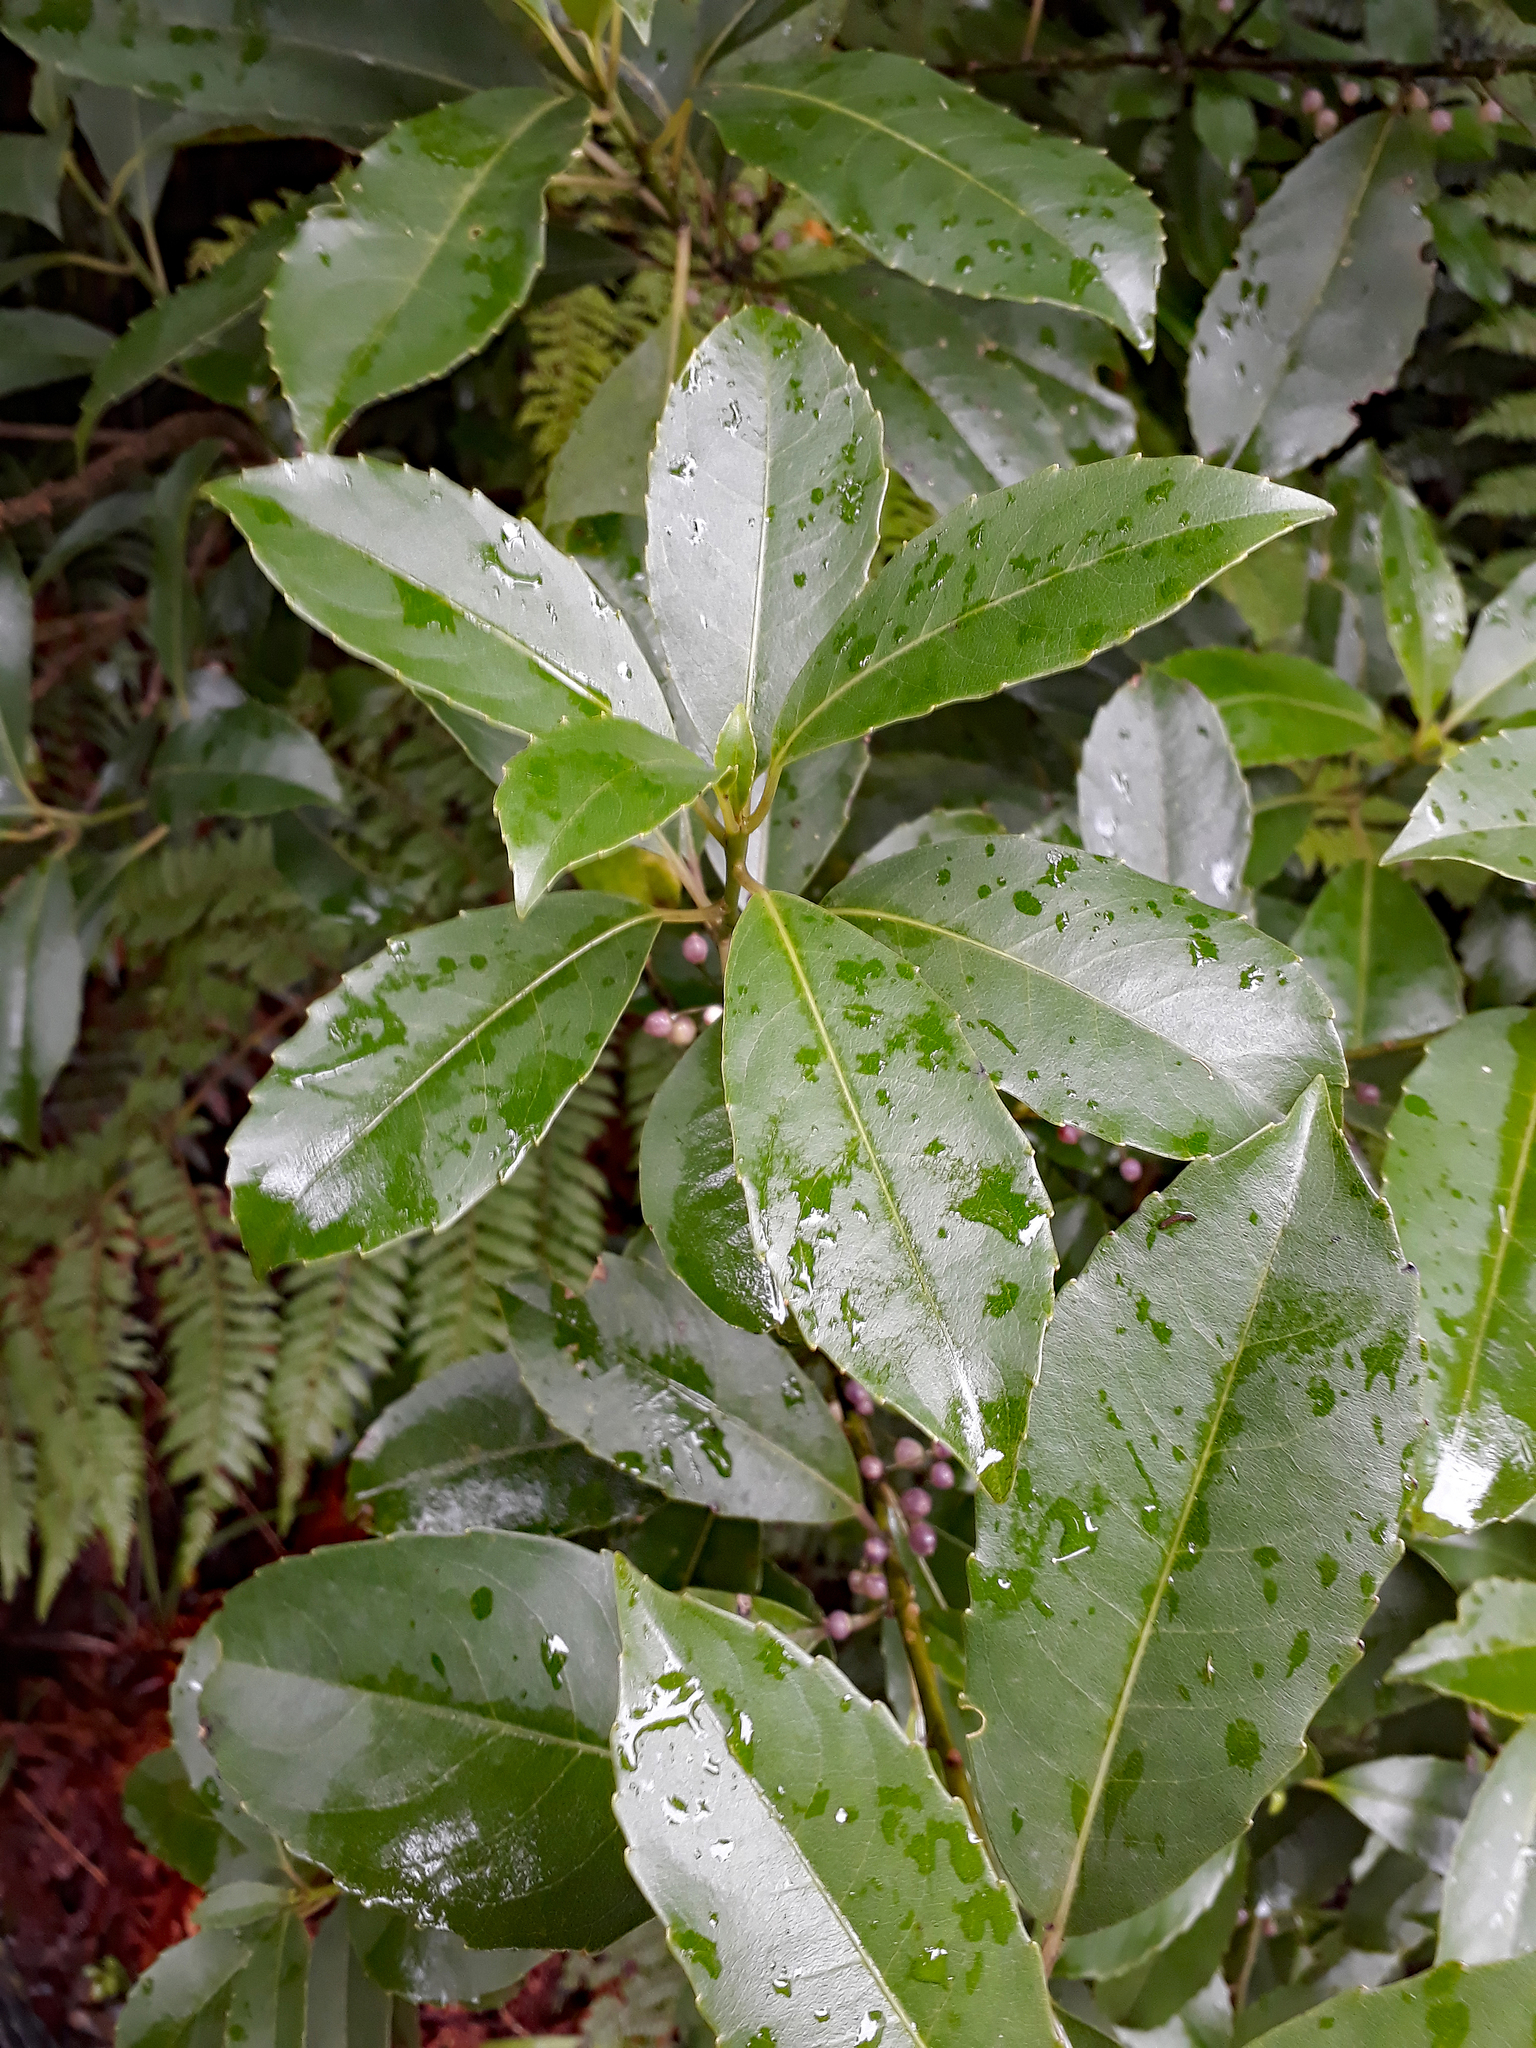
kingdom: Plantae
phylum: Tracheophyta
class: Magnoliopsida
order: Malpighiales
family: Violaceae
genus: Melicytus
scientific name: Melicytus macrophyllus
